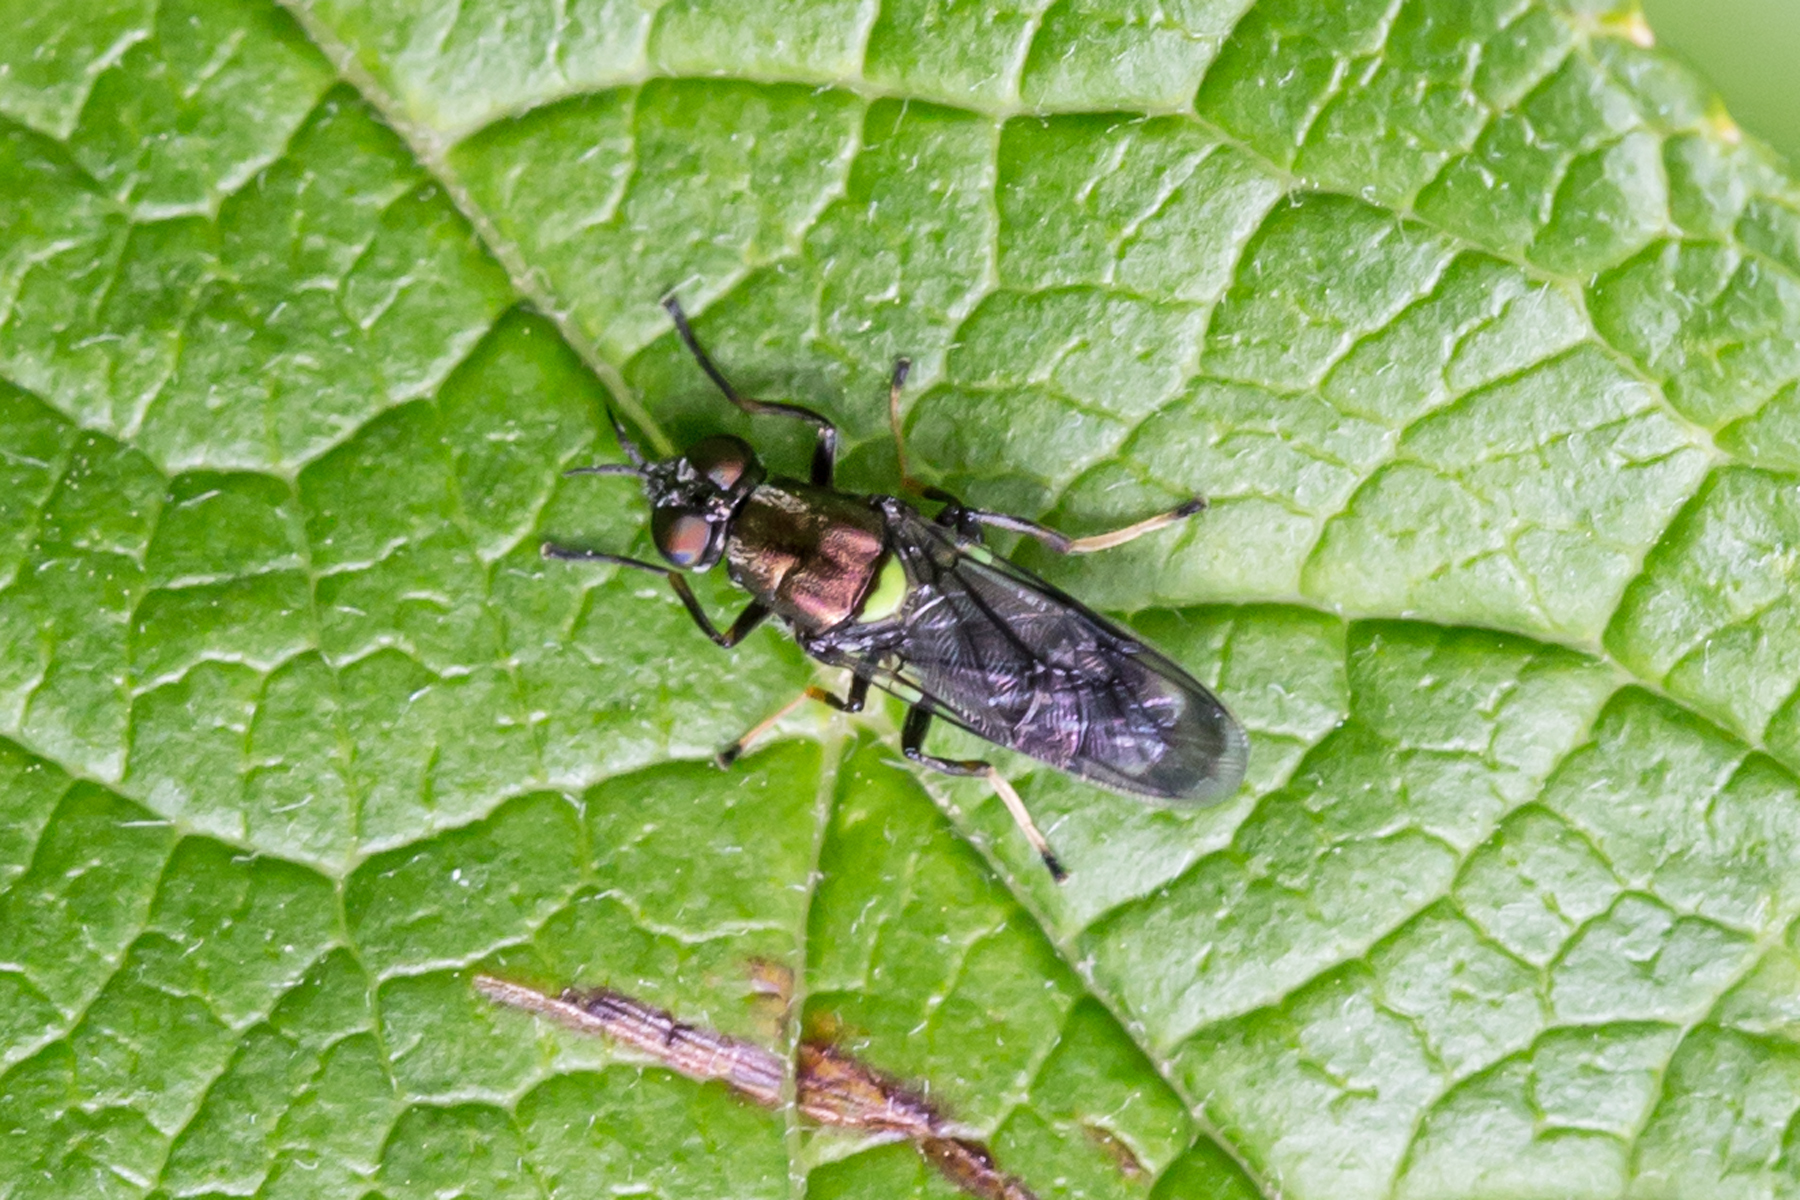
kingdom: Animalia
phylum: Arthropoda
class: Insecta
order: Diptera
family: Stratiomyidae
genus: Myxosargus
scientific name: Myxosargus nigricormis
